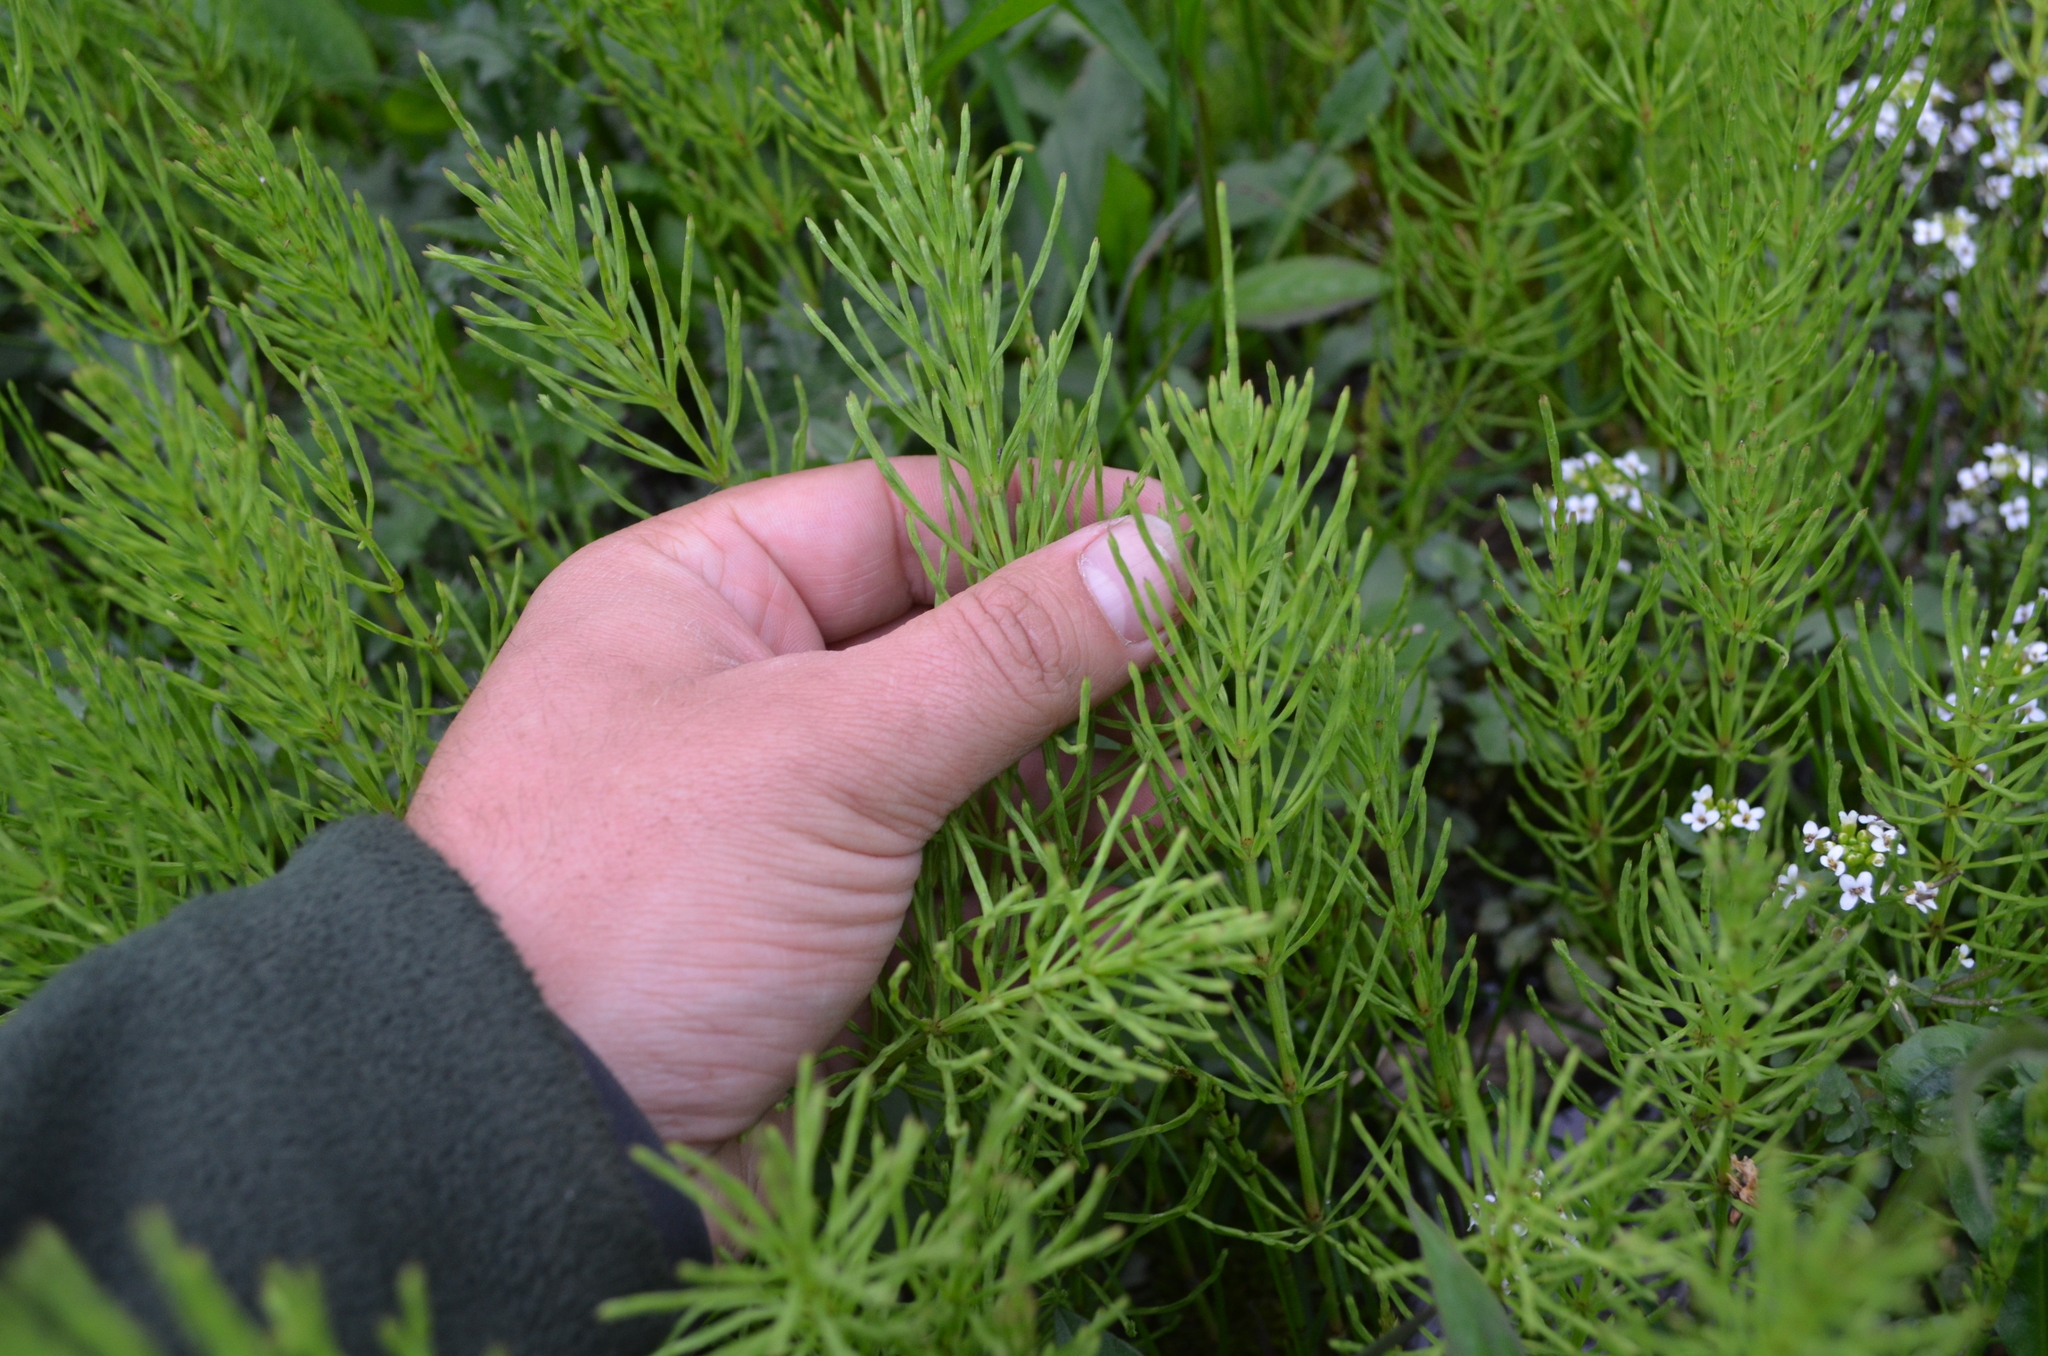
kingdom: Plantae
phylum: Tracheophyta
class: Polypodiopsida
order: Equisetales
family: Equisetaceae
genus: Equisetum
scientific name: Equisetum arvense
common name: Field horsetail
